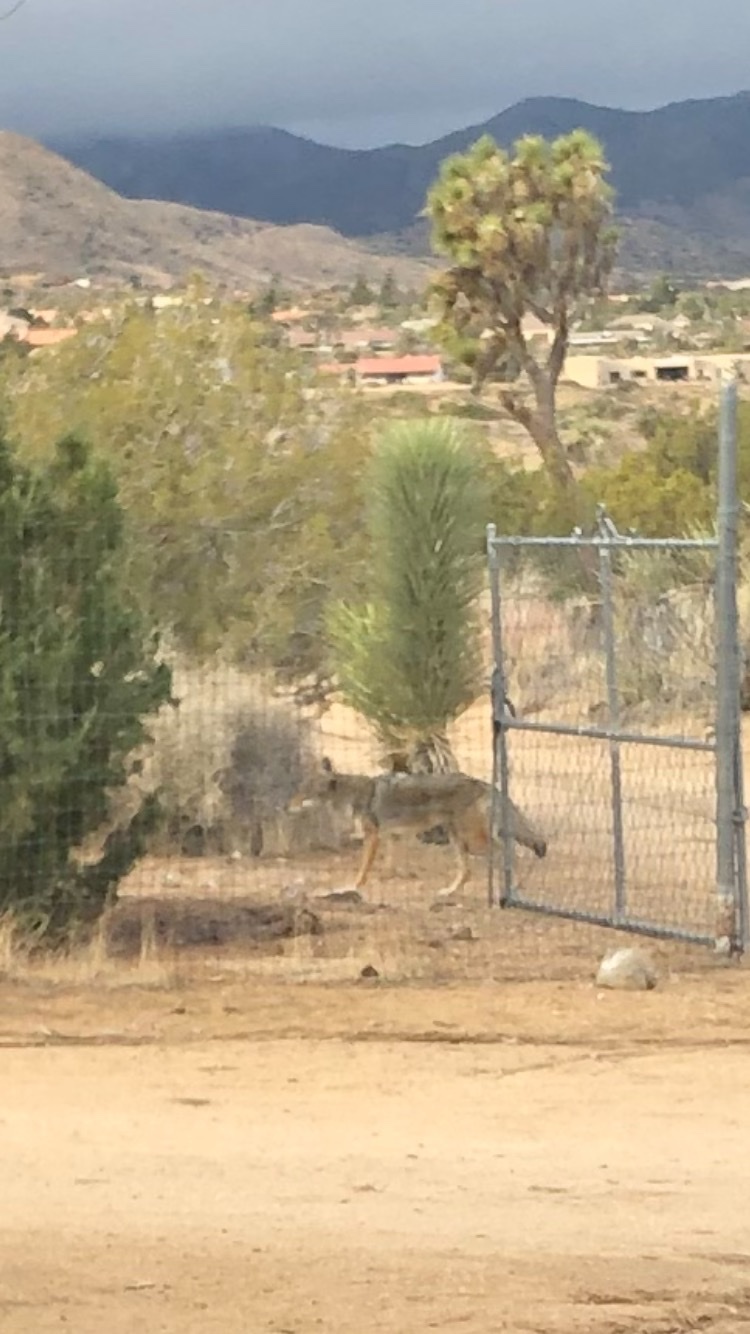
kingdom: Animalia
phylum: Chordata
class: Mammalia
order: Carnivora
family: Canidae
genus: Canis
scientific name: Canis latrans
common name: Coyote
